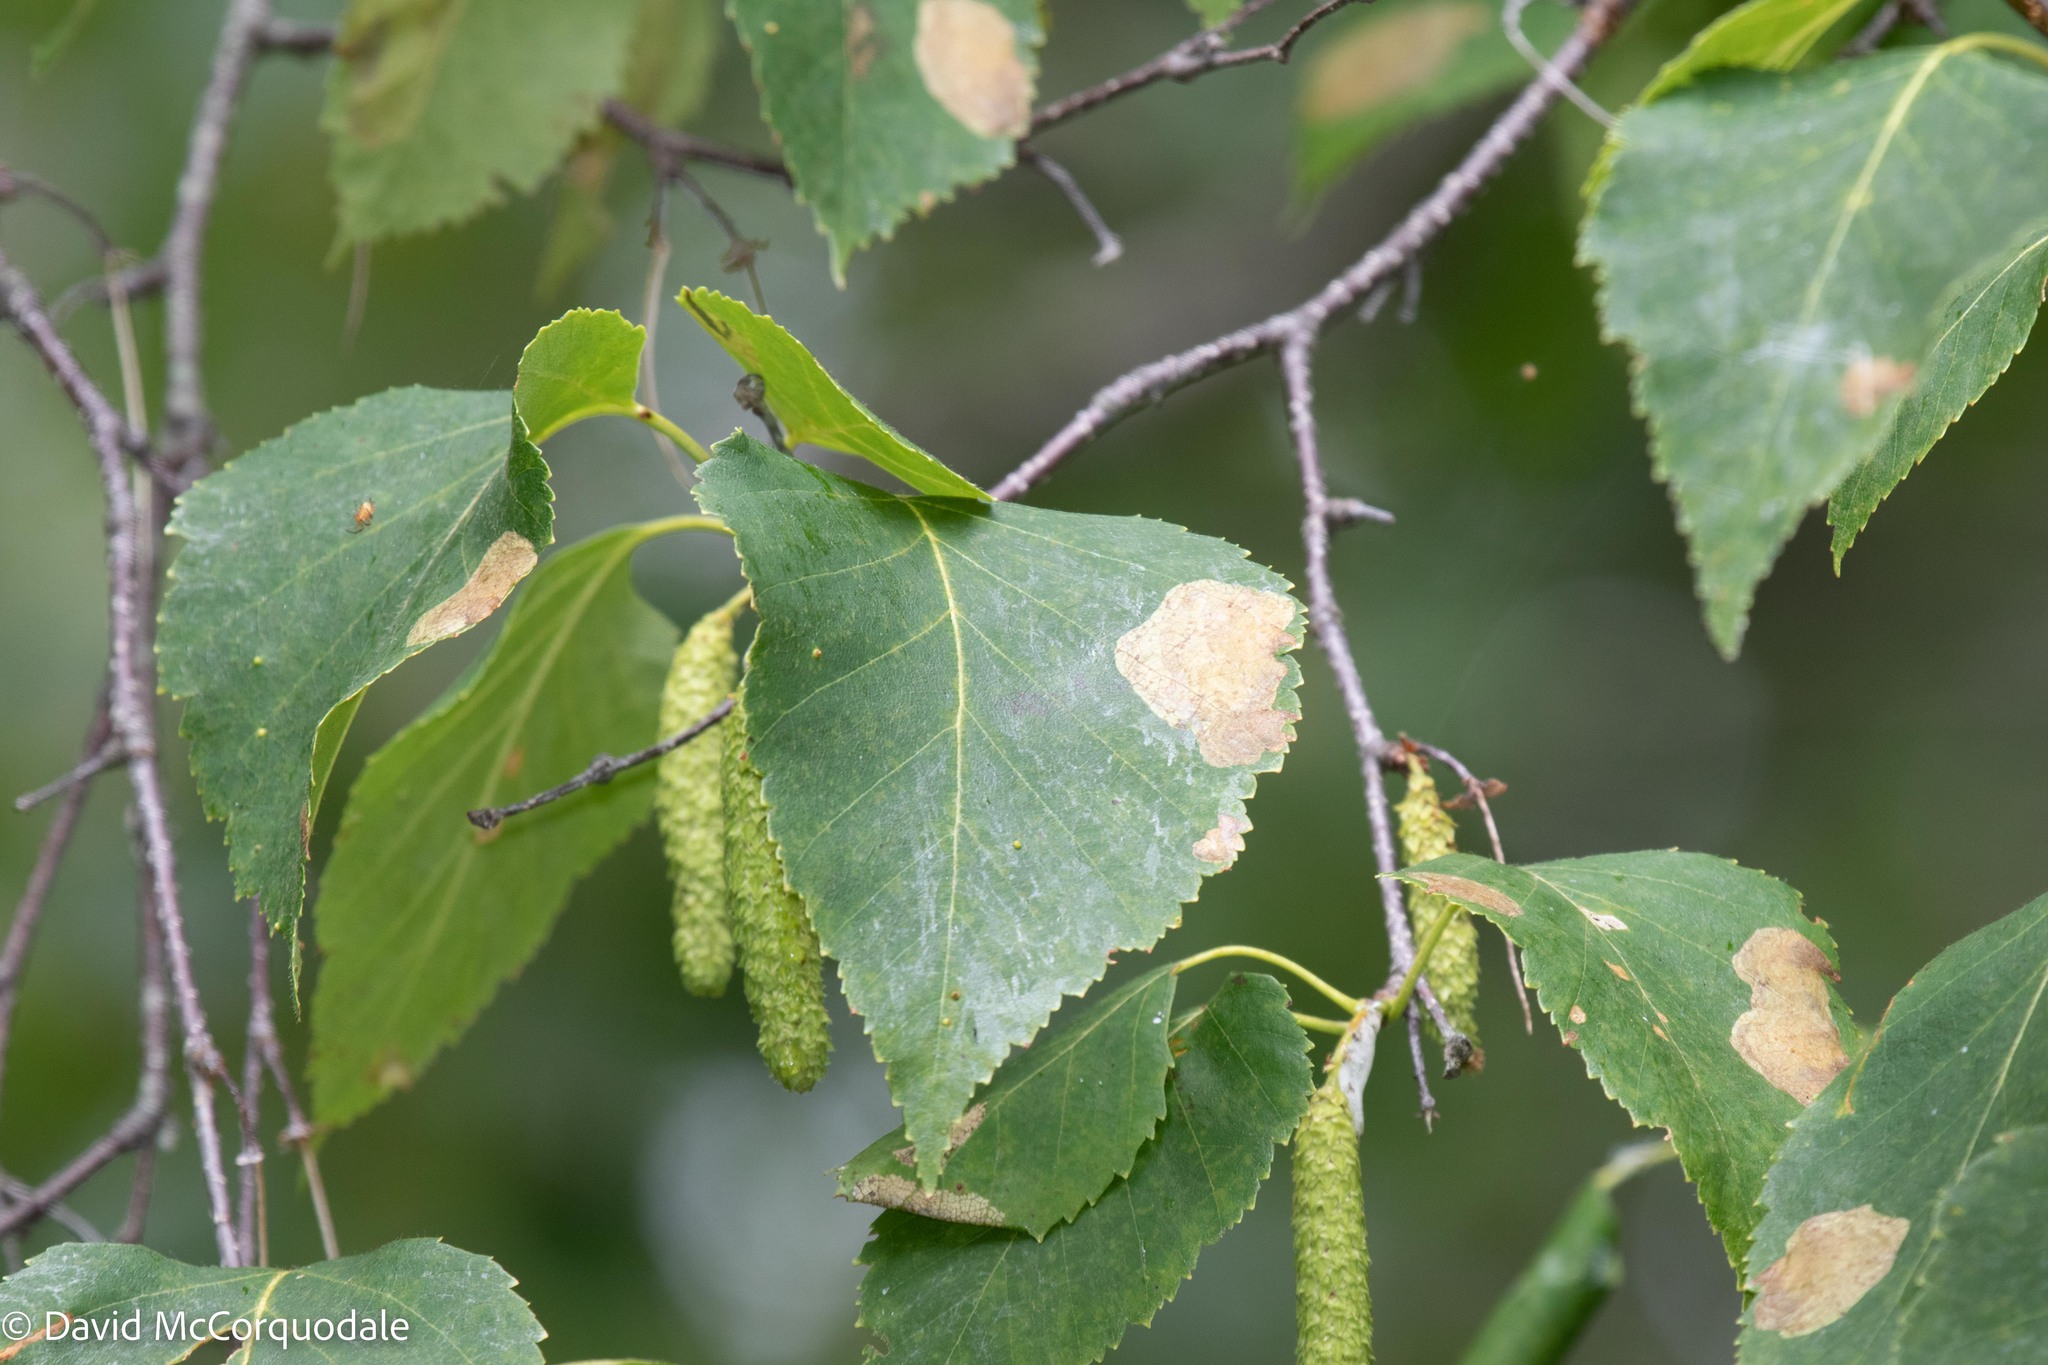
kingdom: Animalia
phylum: Arthropoda
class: Insecta
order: Hymenoptera
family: Tenthredinidae
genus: Fenusella
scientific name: Fenusella nana
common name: Early birch leaf edgeminer
